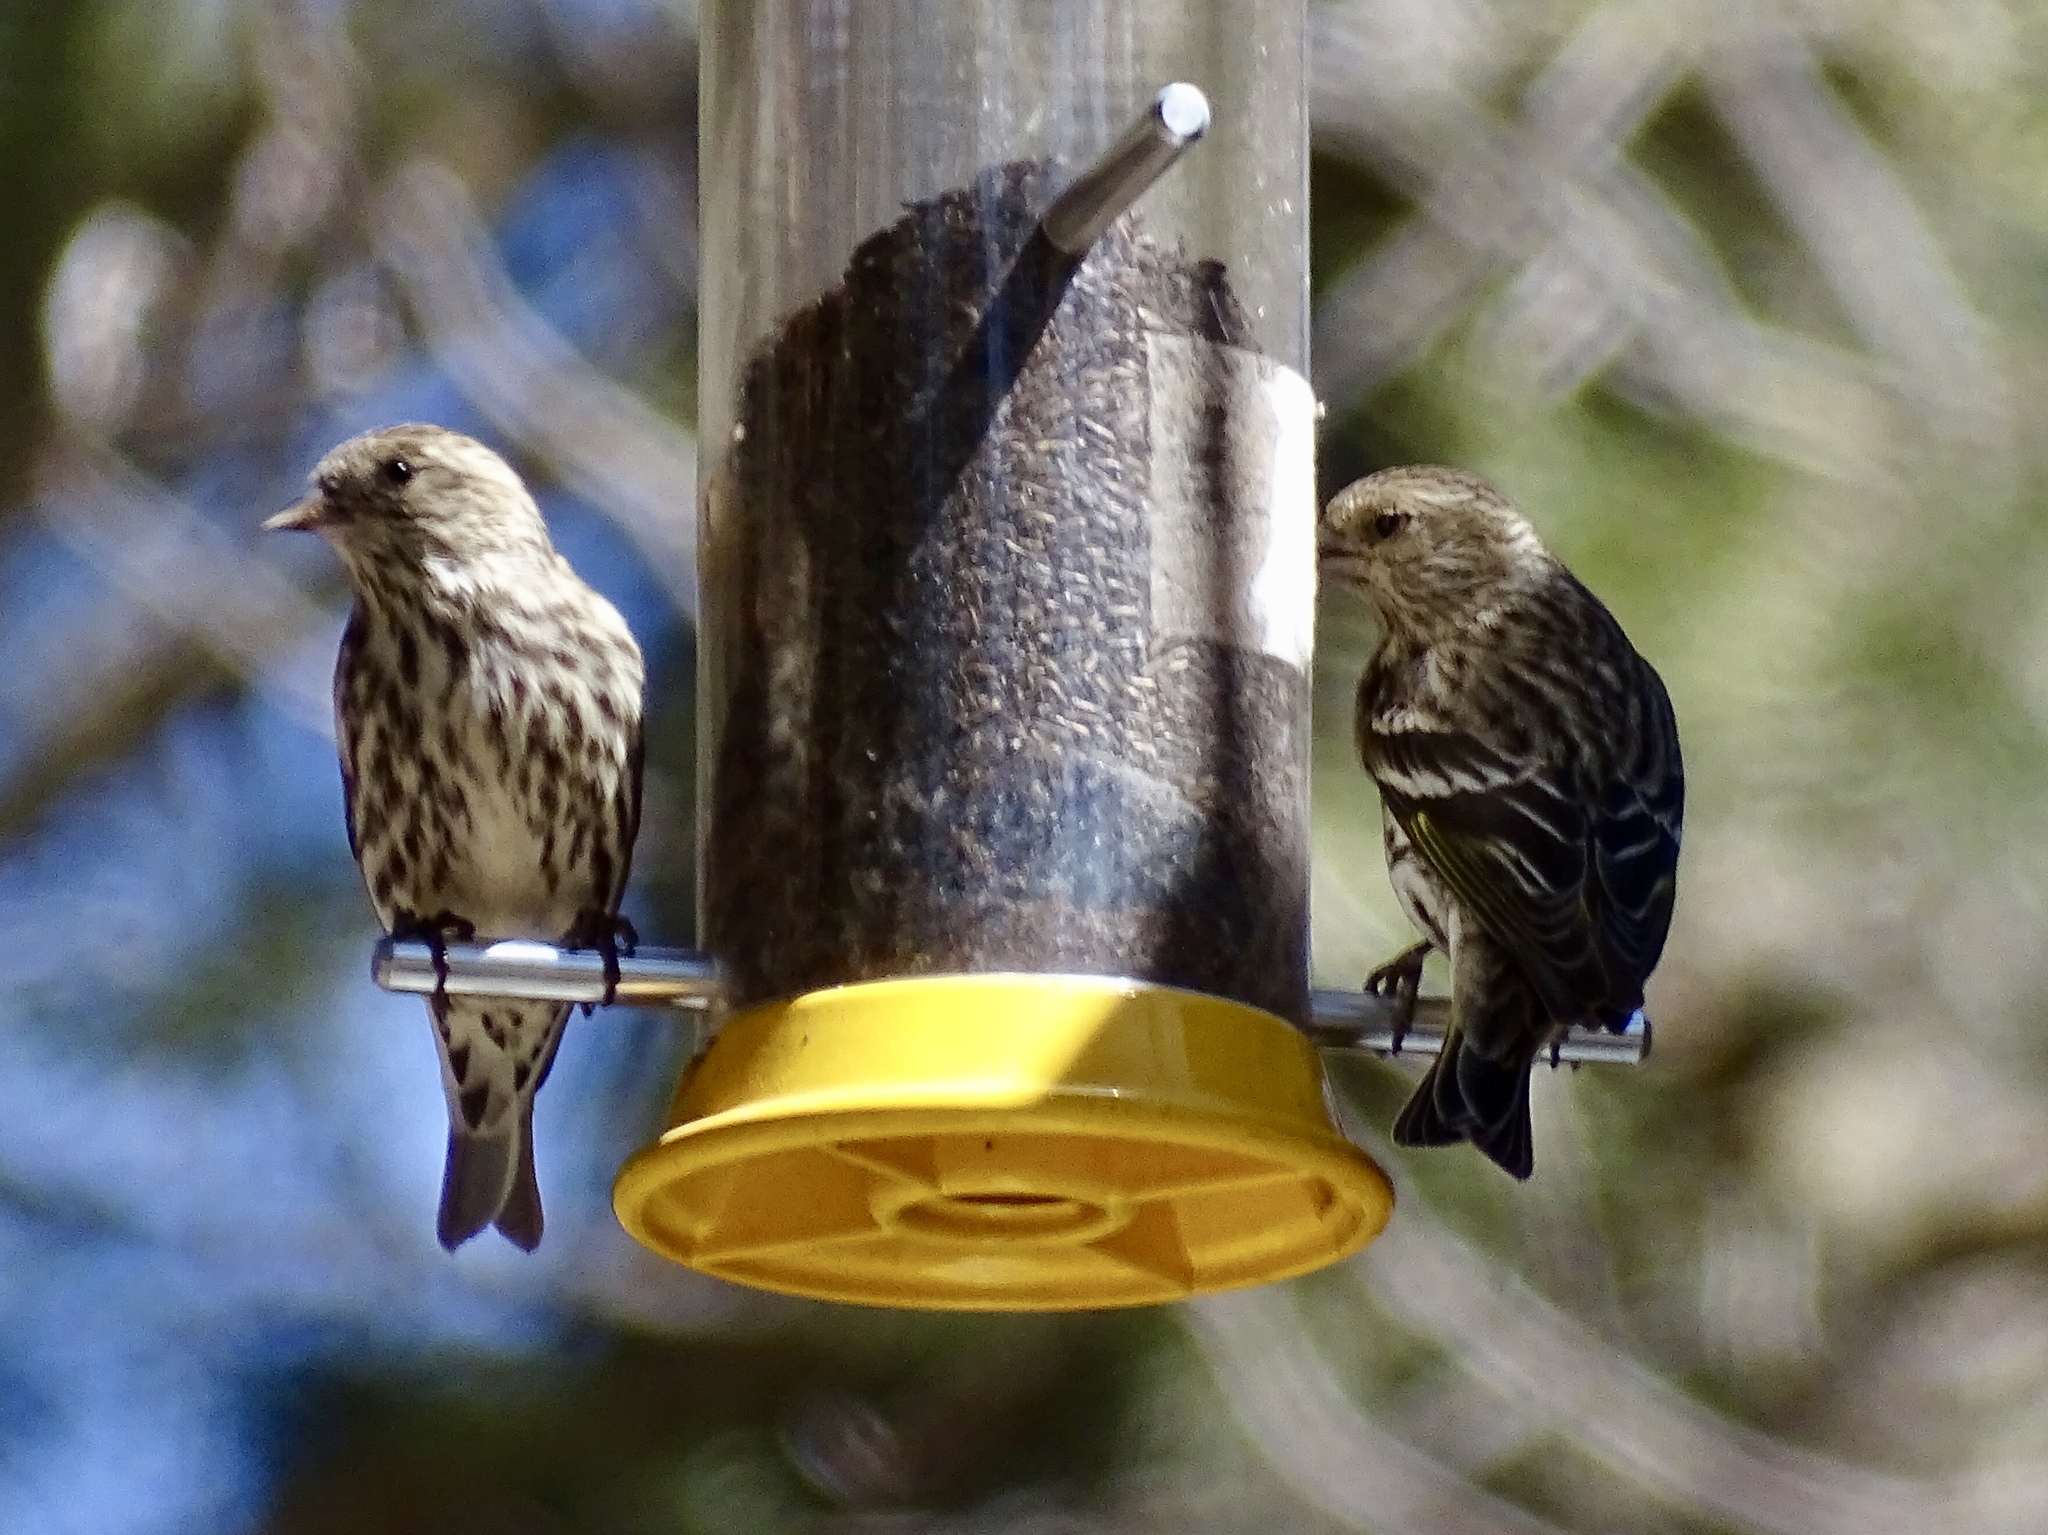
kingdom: Animalia
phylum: Chordata
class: Aves
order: Passeriformes
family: Fringillidae
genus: Spinus
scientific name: Spinus pinus
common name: Pine siskin
